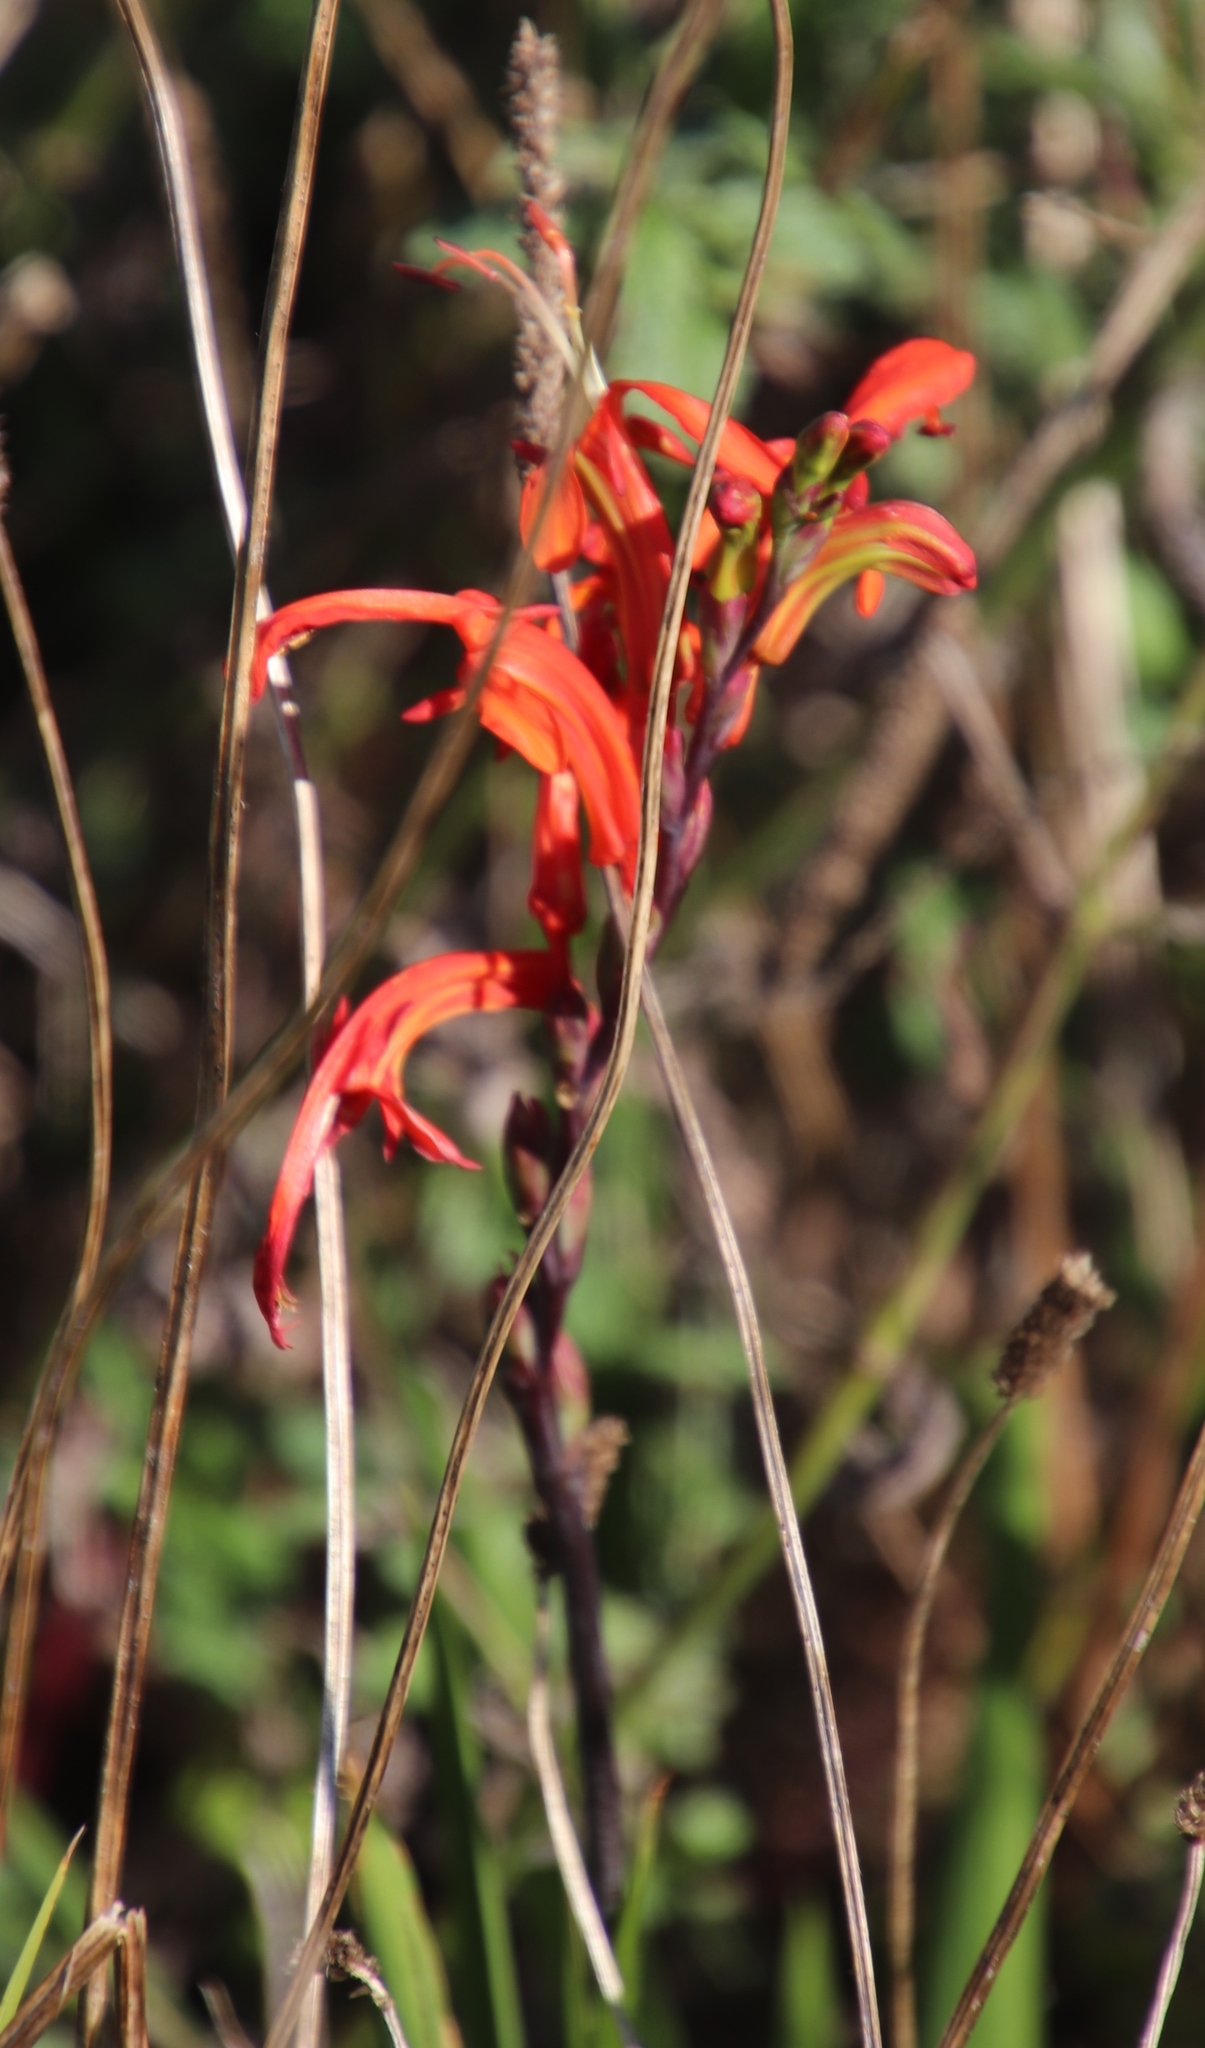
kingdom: Plantae
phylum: Tracheophyta
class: Liliopsida
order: Asparagales
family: Iridaceae
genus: Chasmanthe
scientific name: Chasmanthe aethiopica
